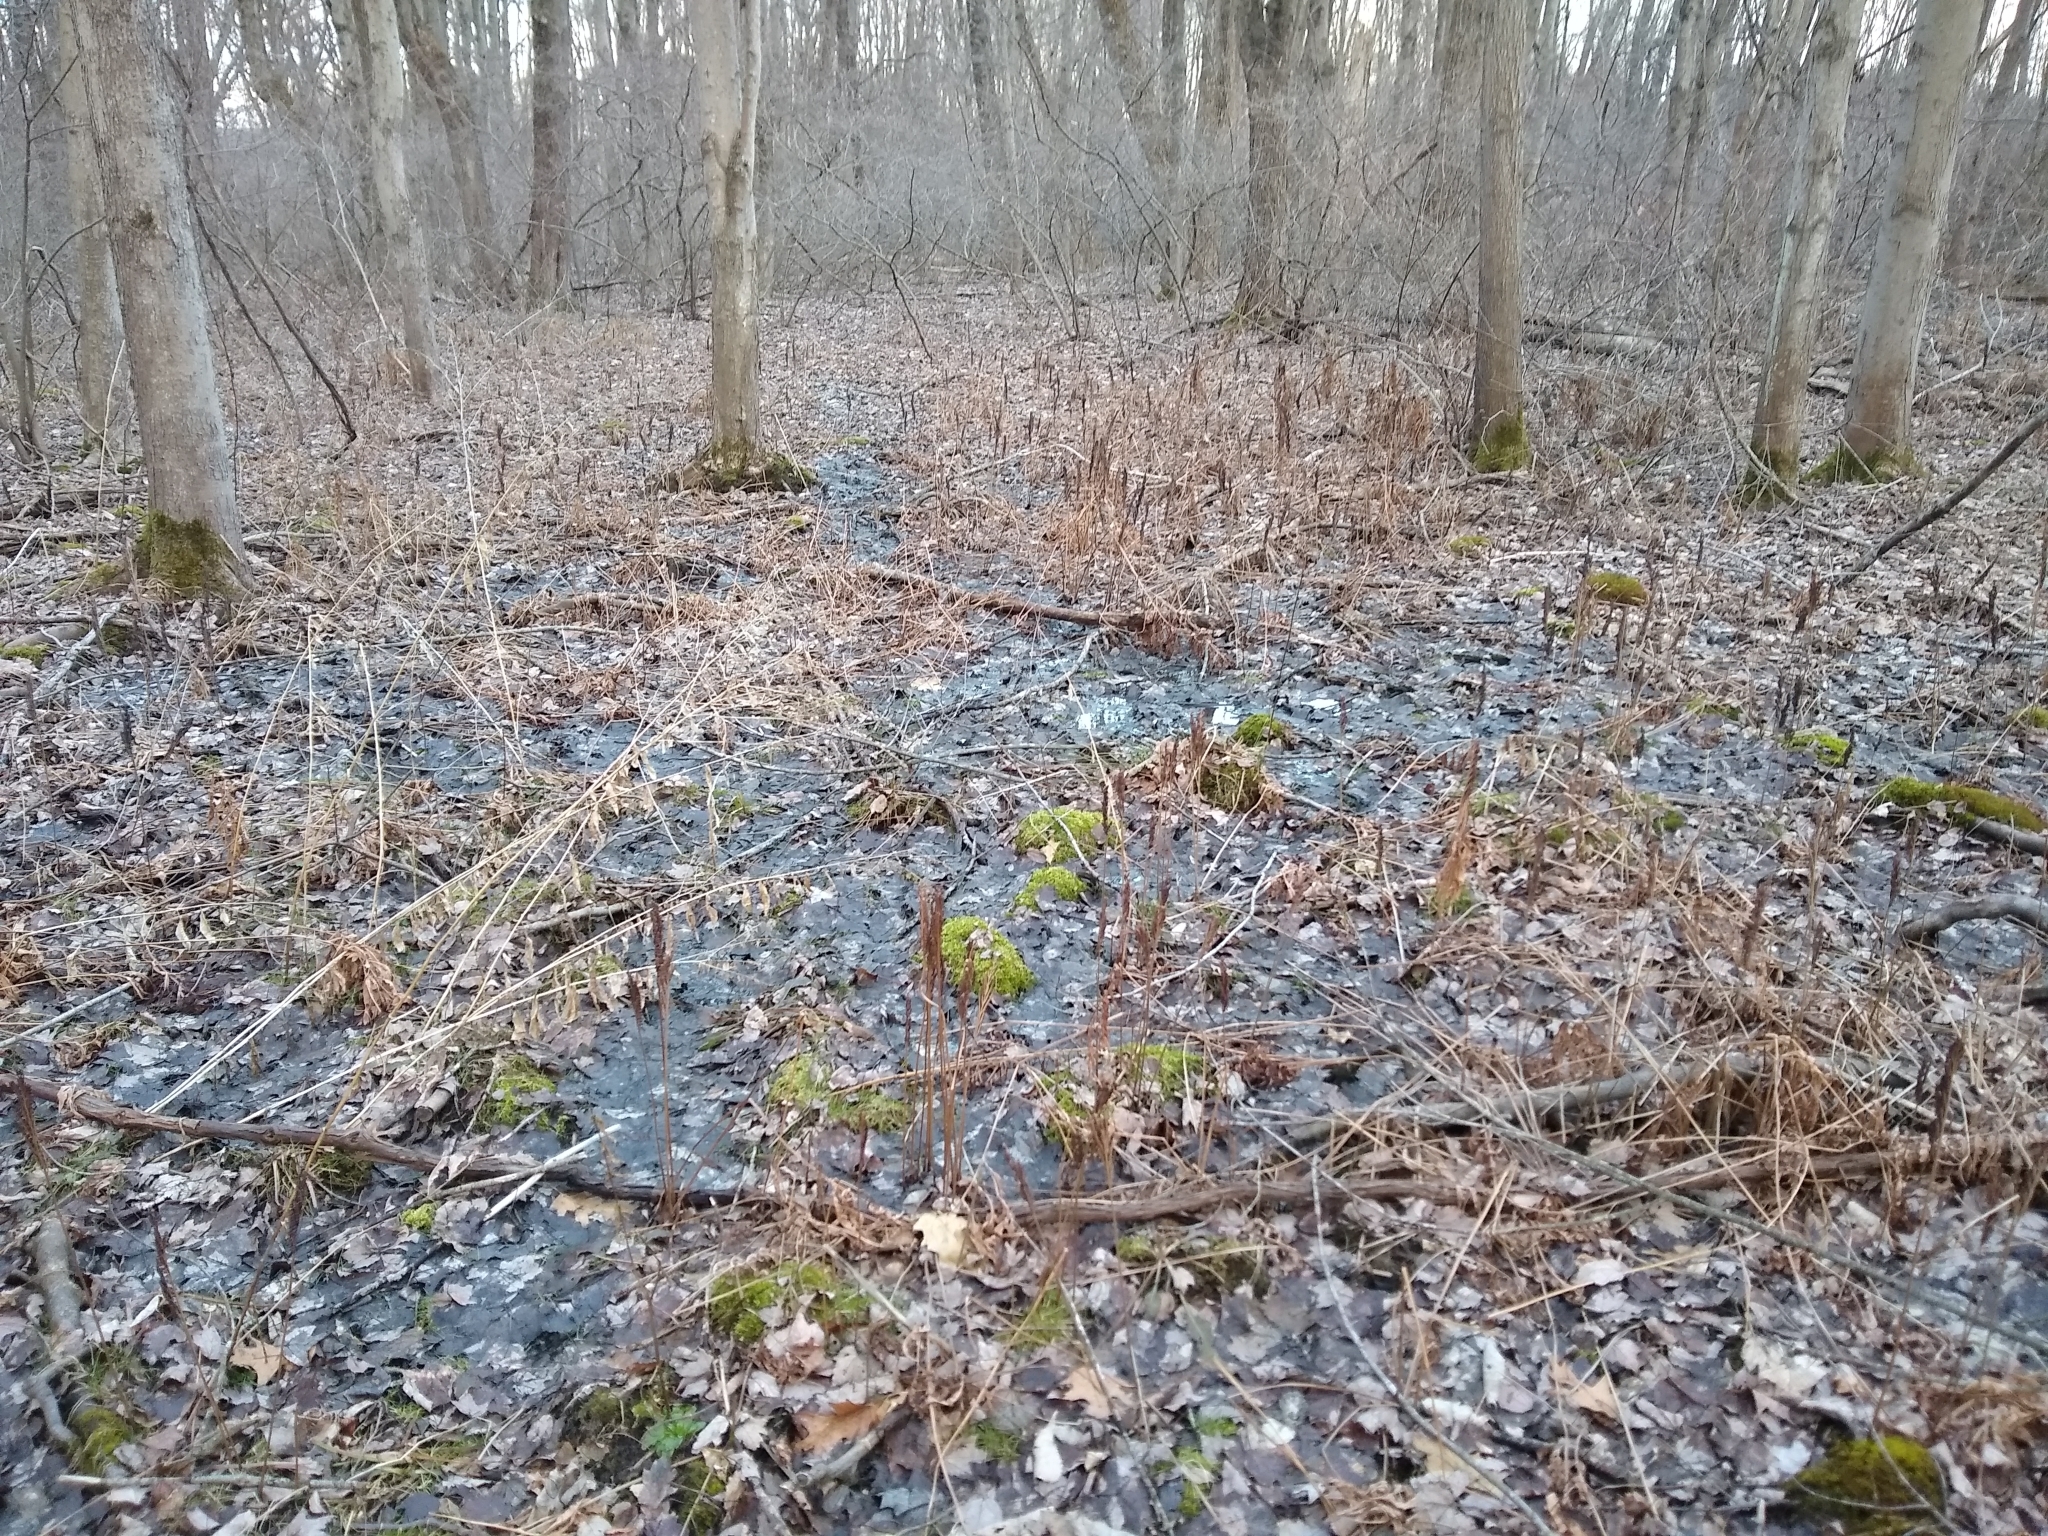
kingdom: Plantae
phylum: Tracheophyta
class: Polypodiopsida
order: Polypodiales
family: Onocleaceae
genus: Onoclea
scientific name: Onoclea sensibilis
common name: Sensitive fern
